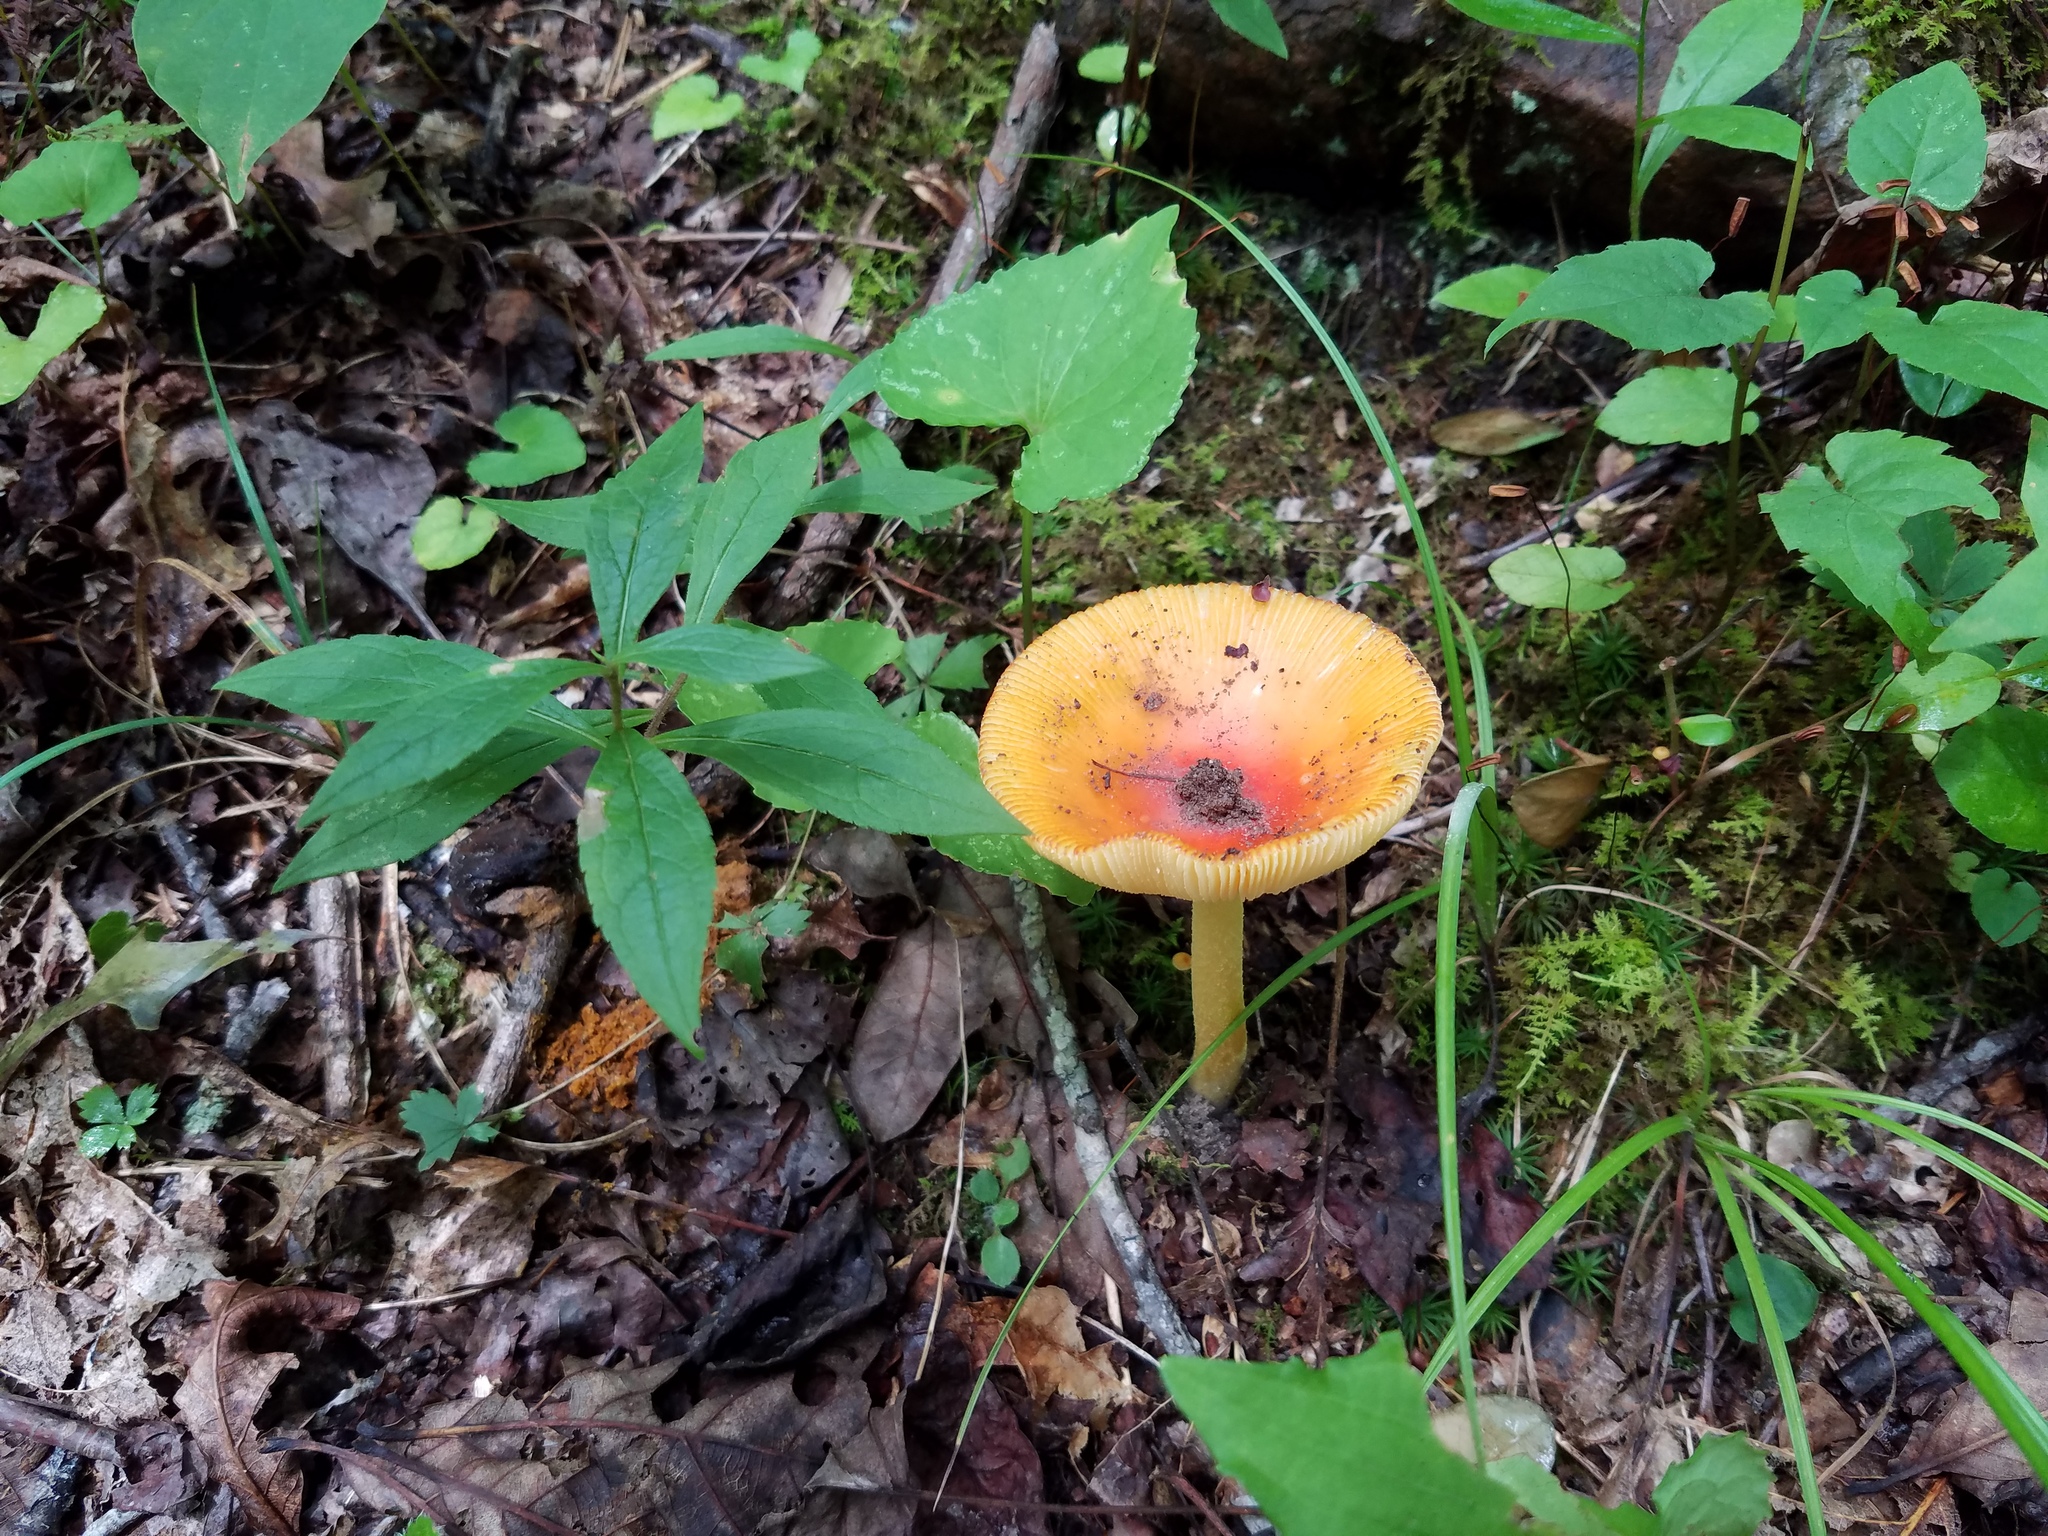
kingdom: Fungi
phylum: Basidiomycota
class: Agaricomycetes
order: Agaricales
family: Amanitaceae
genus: Amanita
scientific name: Amanita parcivolvata
